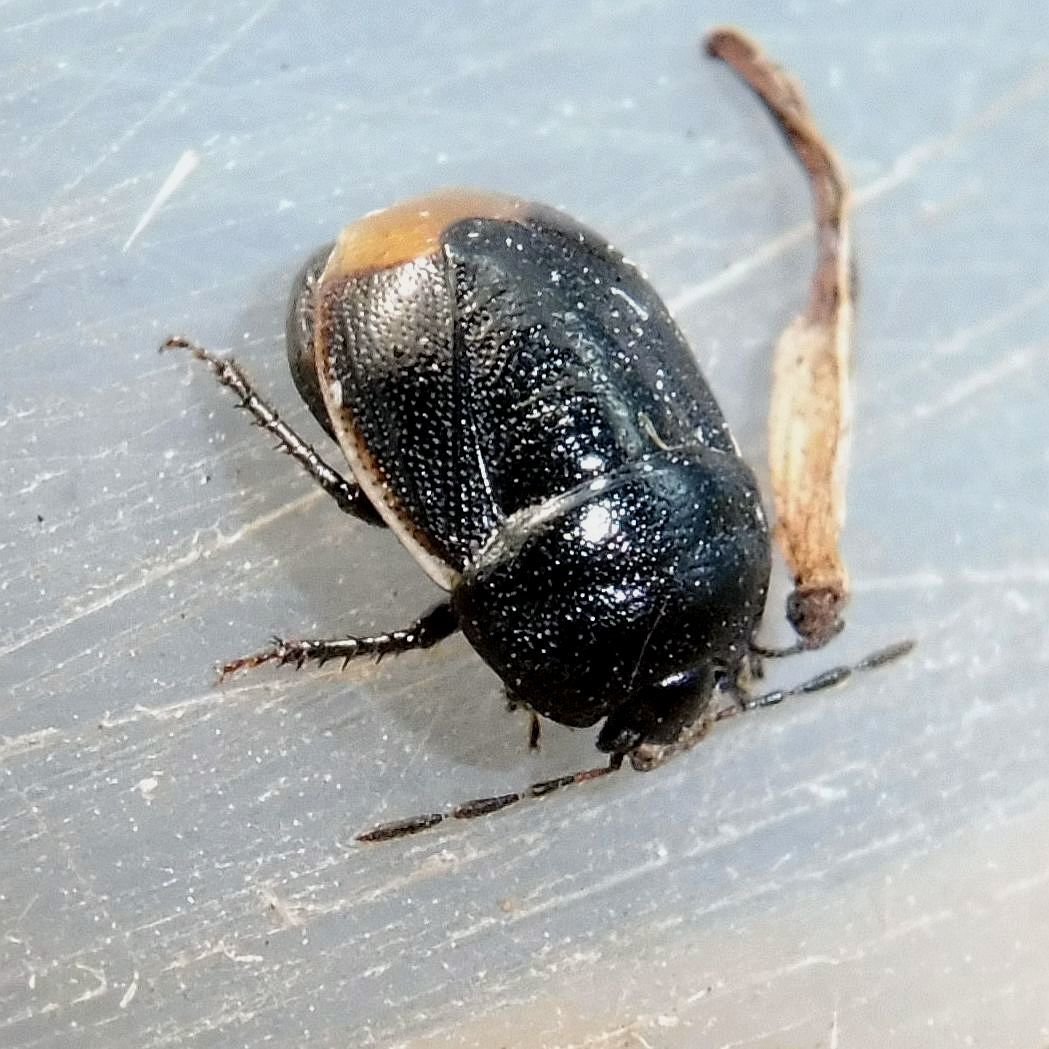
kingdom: Animalia
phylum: Arthropoda
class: Insecta
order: Hemiptera
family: Cydnidae
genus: Legnotus
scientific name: Legnotus limbosus
